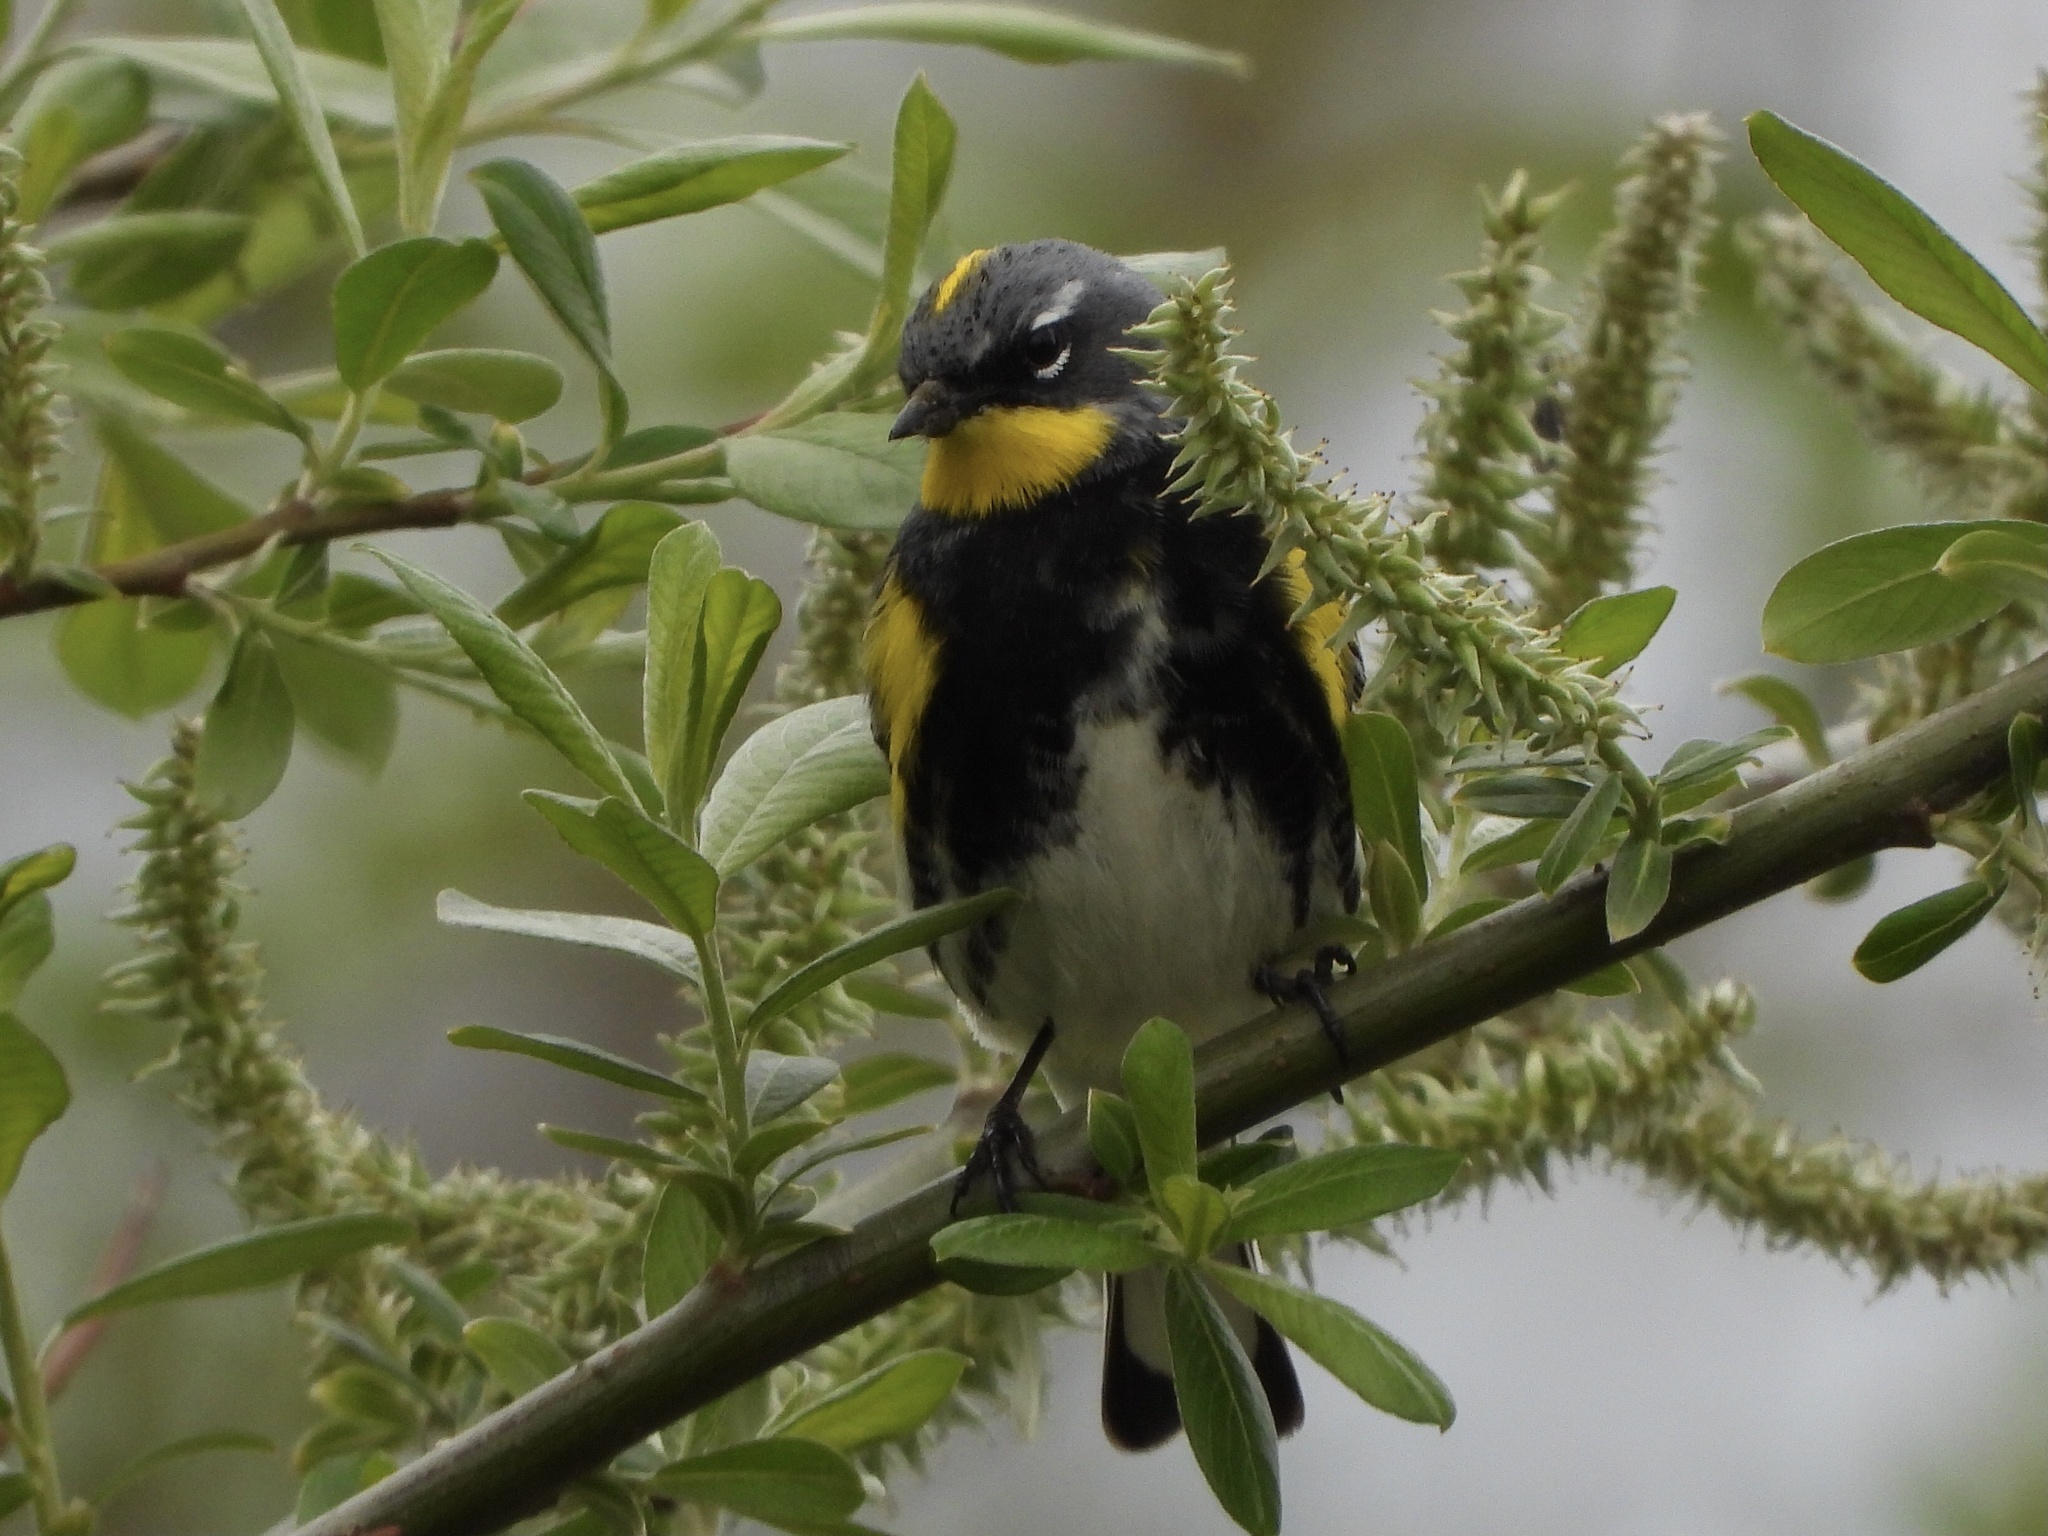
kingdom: Animalia
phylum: Chordata
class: Aves
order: Passeriformes
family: Parulidae
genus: Setophaga
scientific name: Setophaga
